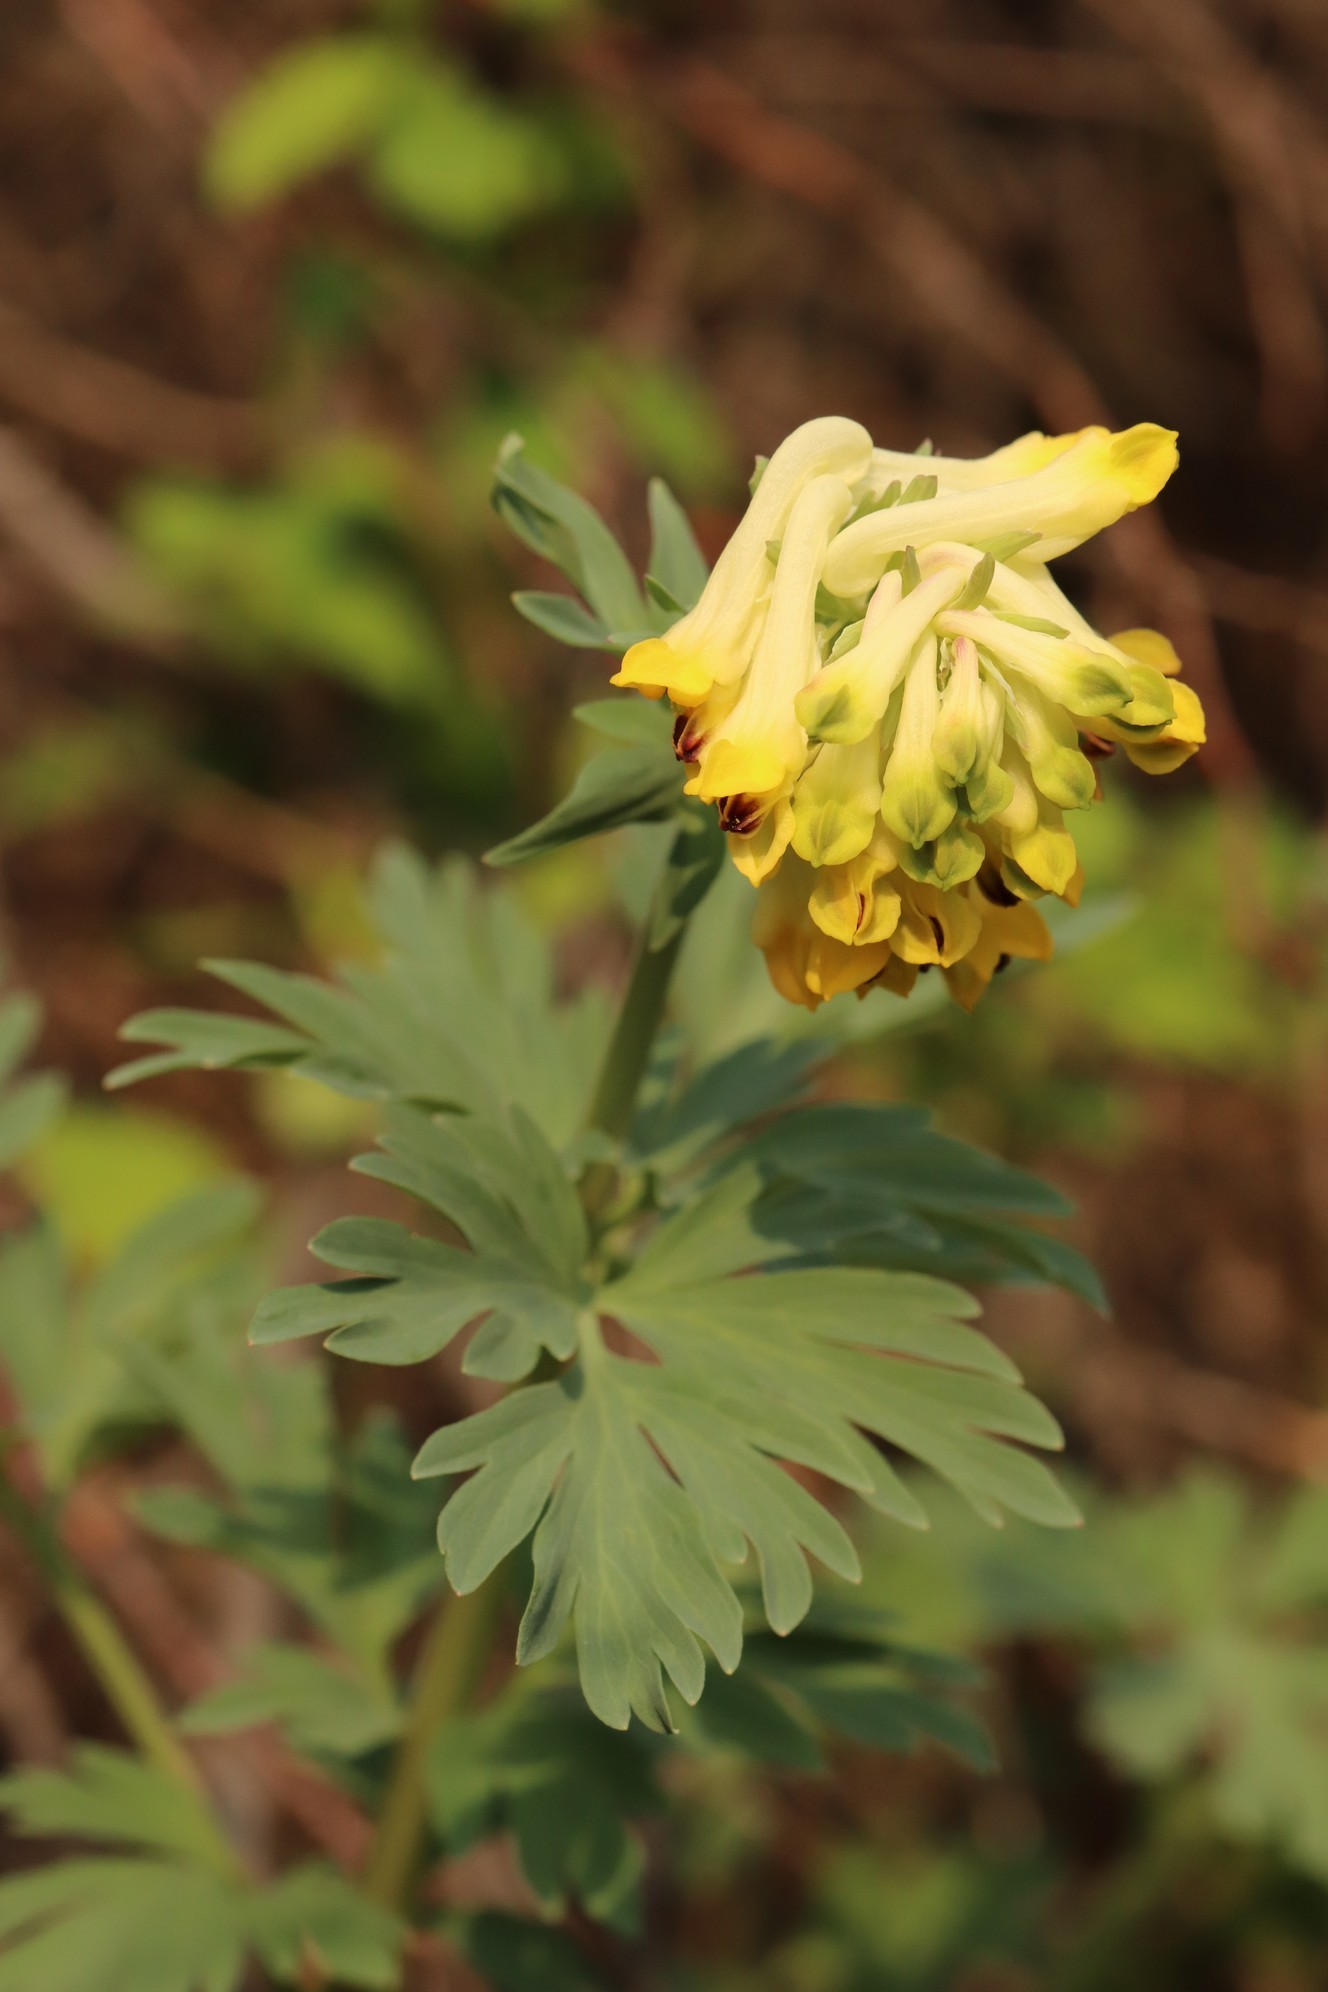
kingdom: Plantae
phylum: Tracheophyta
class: Magnoliopsida
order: Ranunculales
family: Papaveraceae
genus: Corydalis
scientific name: Corydalis nobilis
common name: Siberian corydalis
